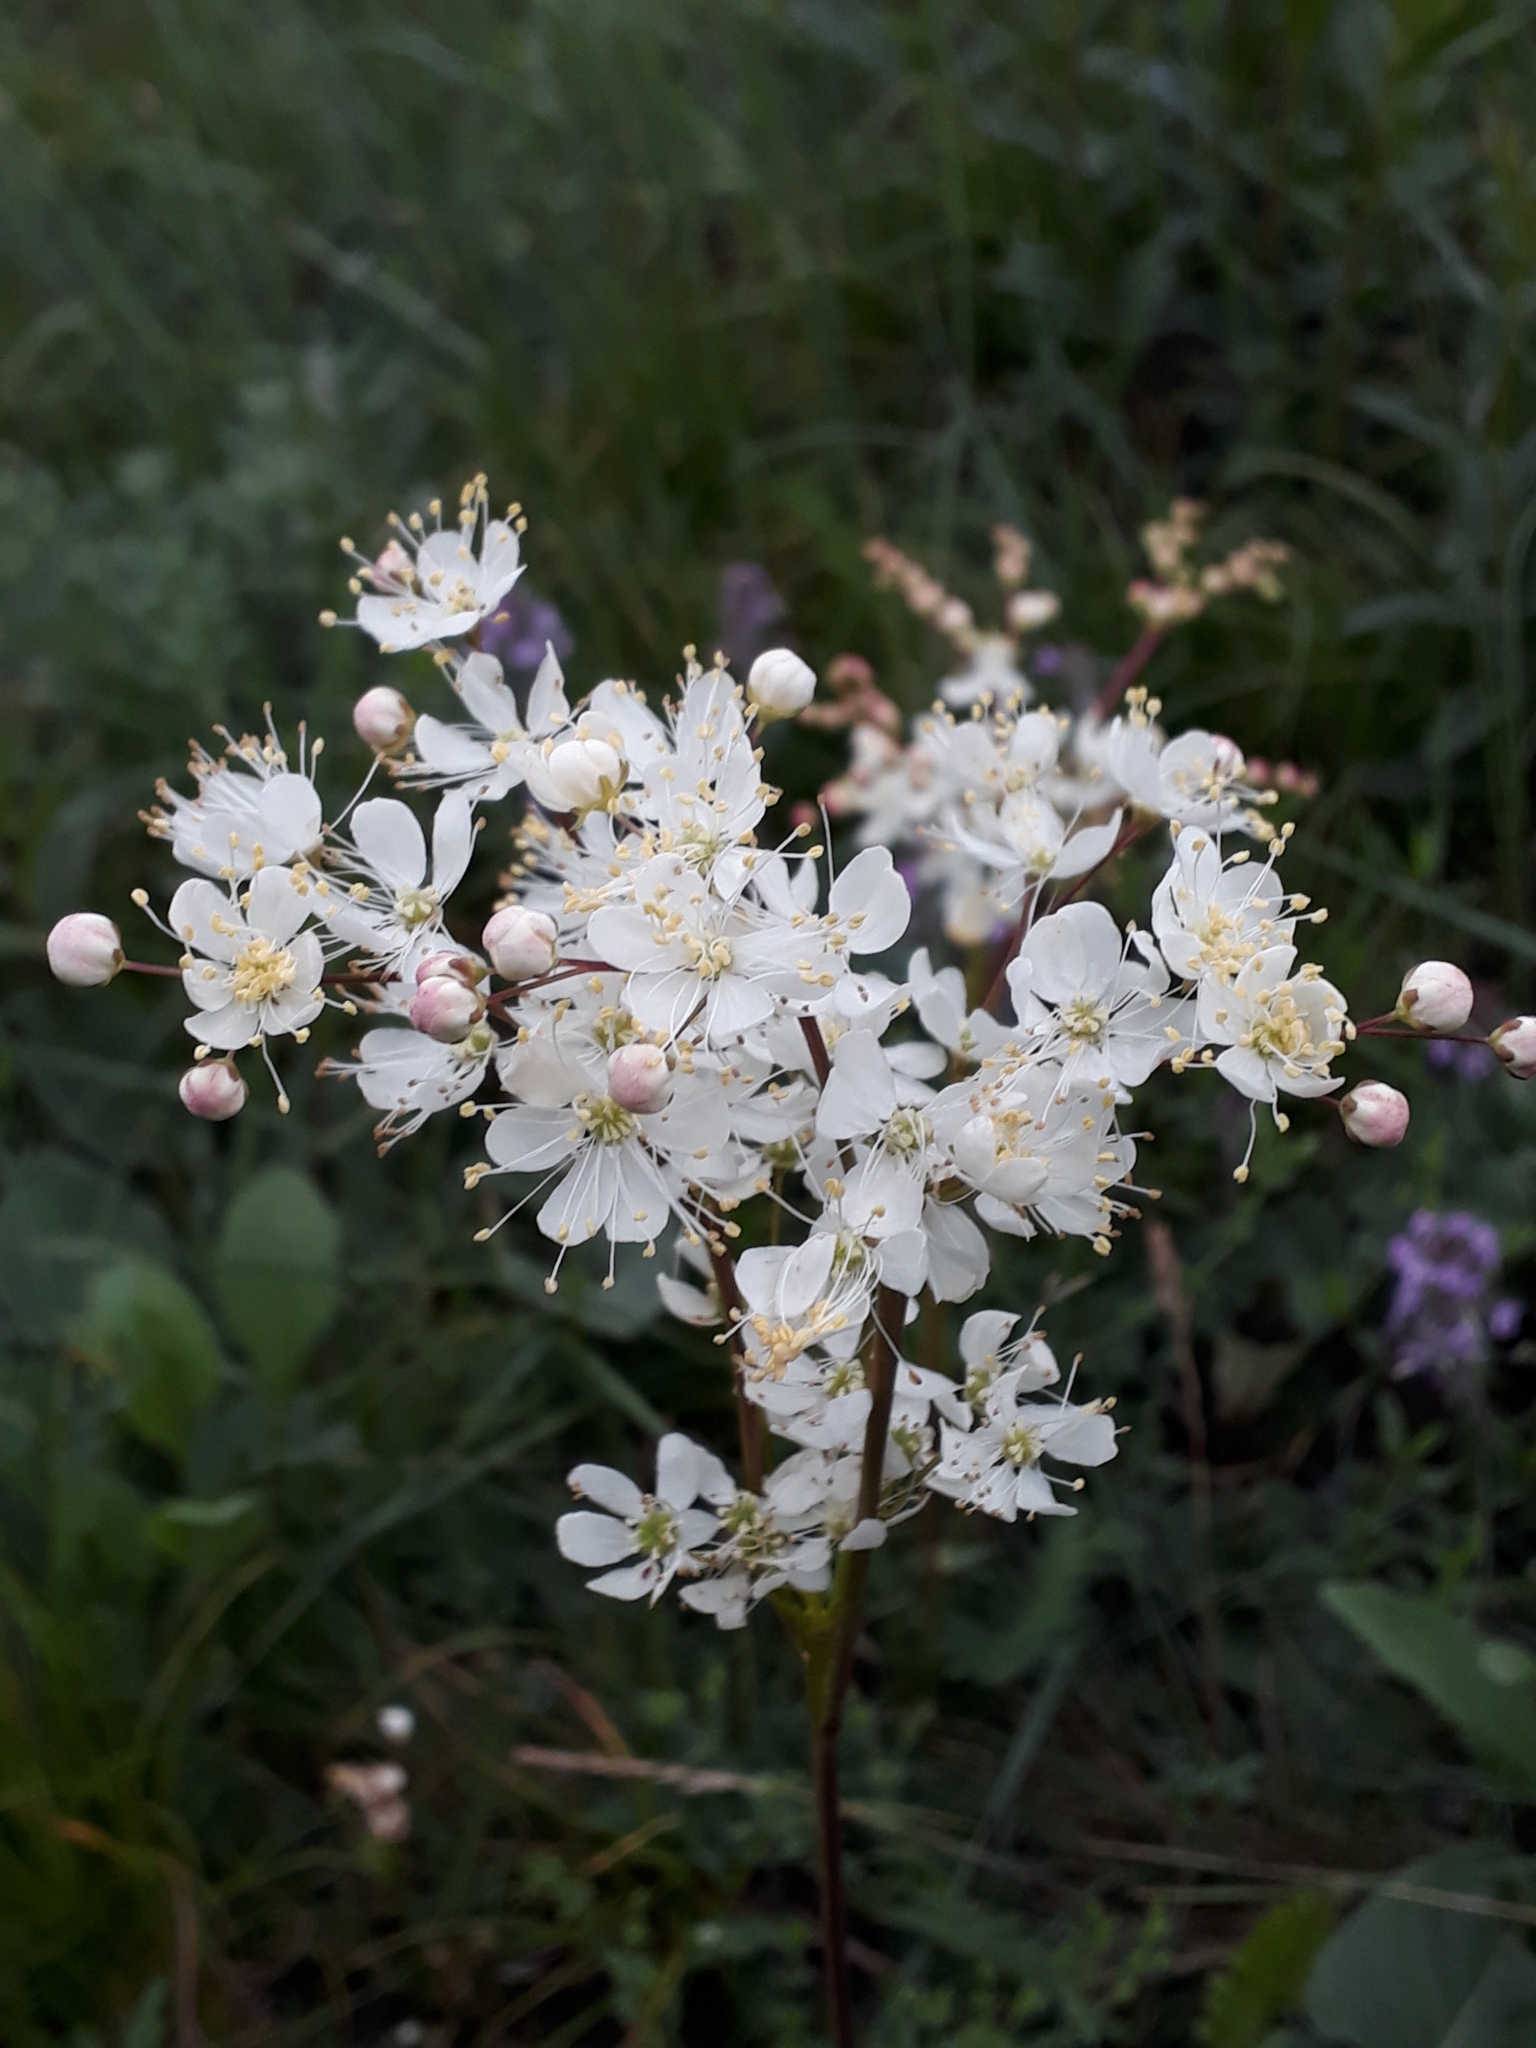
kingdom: Plantae
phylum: Tracheophyta
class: Magnoliopsida
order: Rosales
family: Rosaceae
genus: Filipendula
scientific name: Filipendula vulgaris
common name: Dropwort
